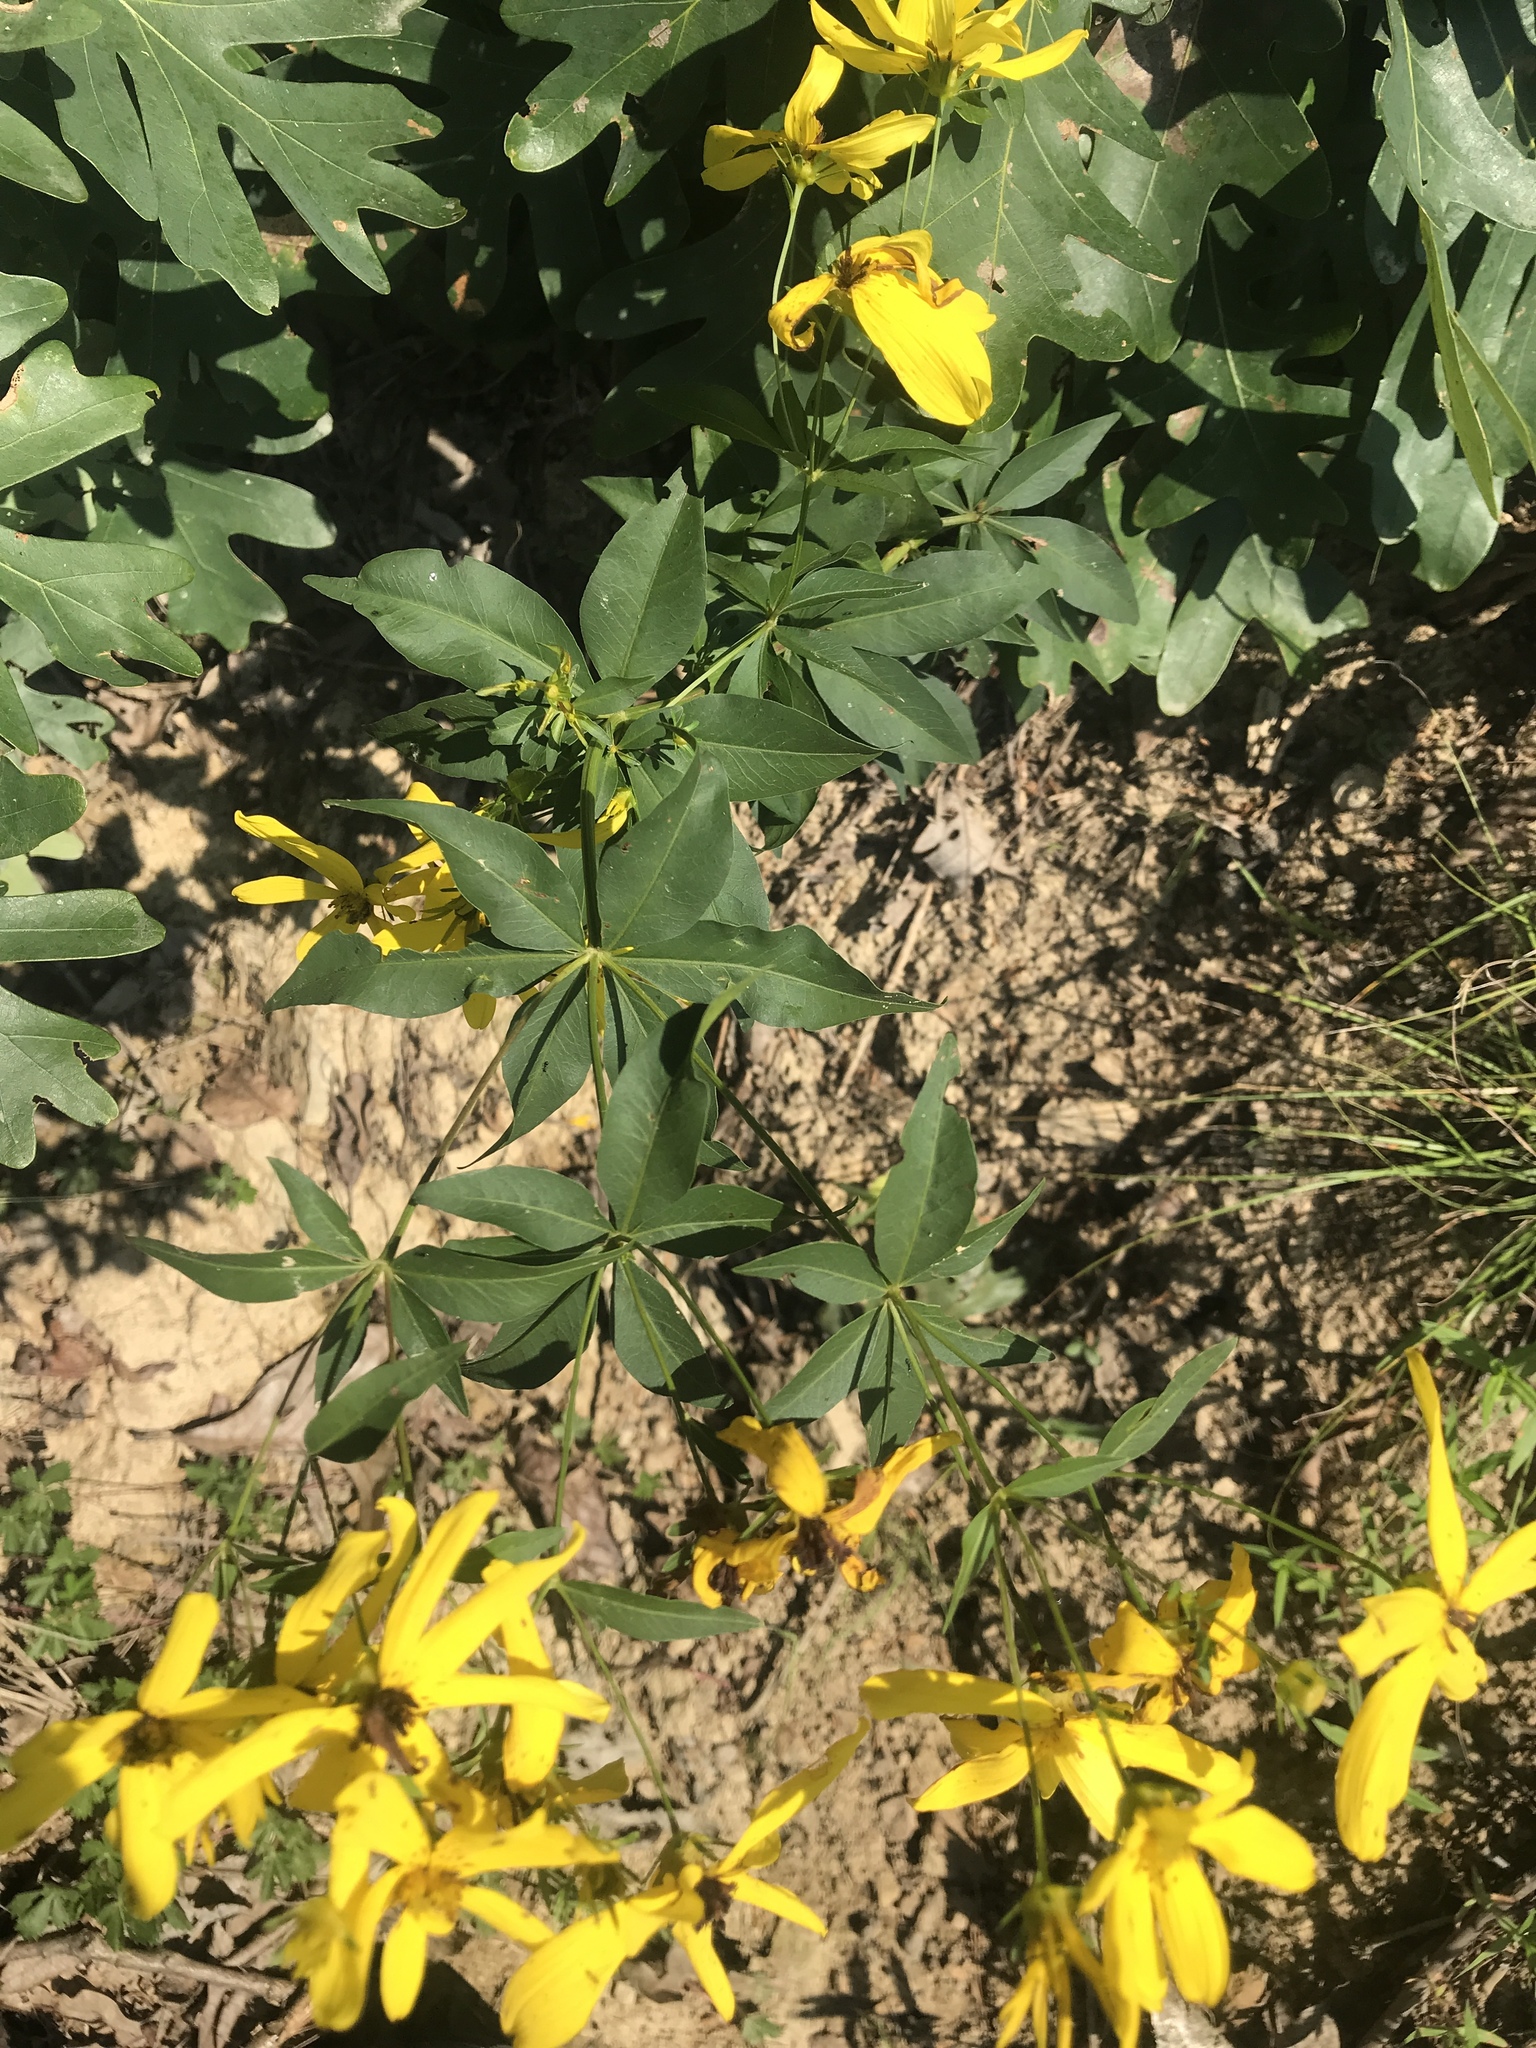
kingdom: Plantae
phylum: Tracheophyta
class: Magnoliopsida
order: Asterales
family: Asteraceae
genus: Coreopsis
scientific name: Coreopsis major
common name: Forest tickseed
